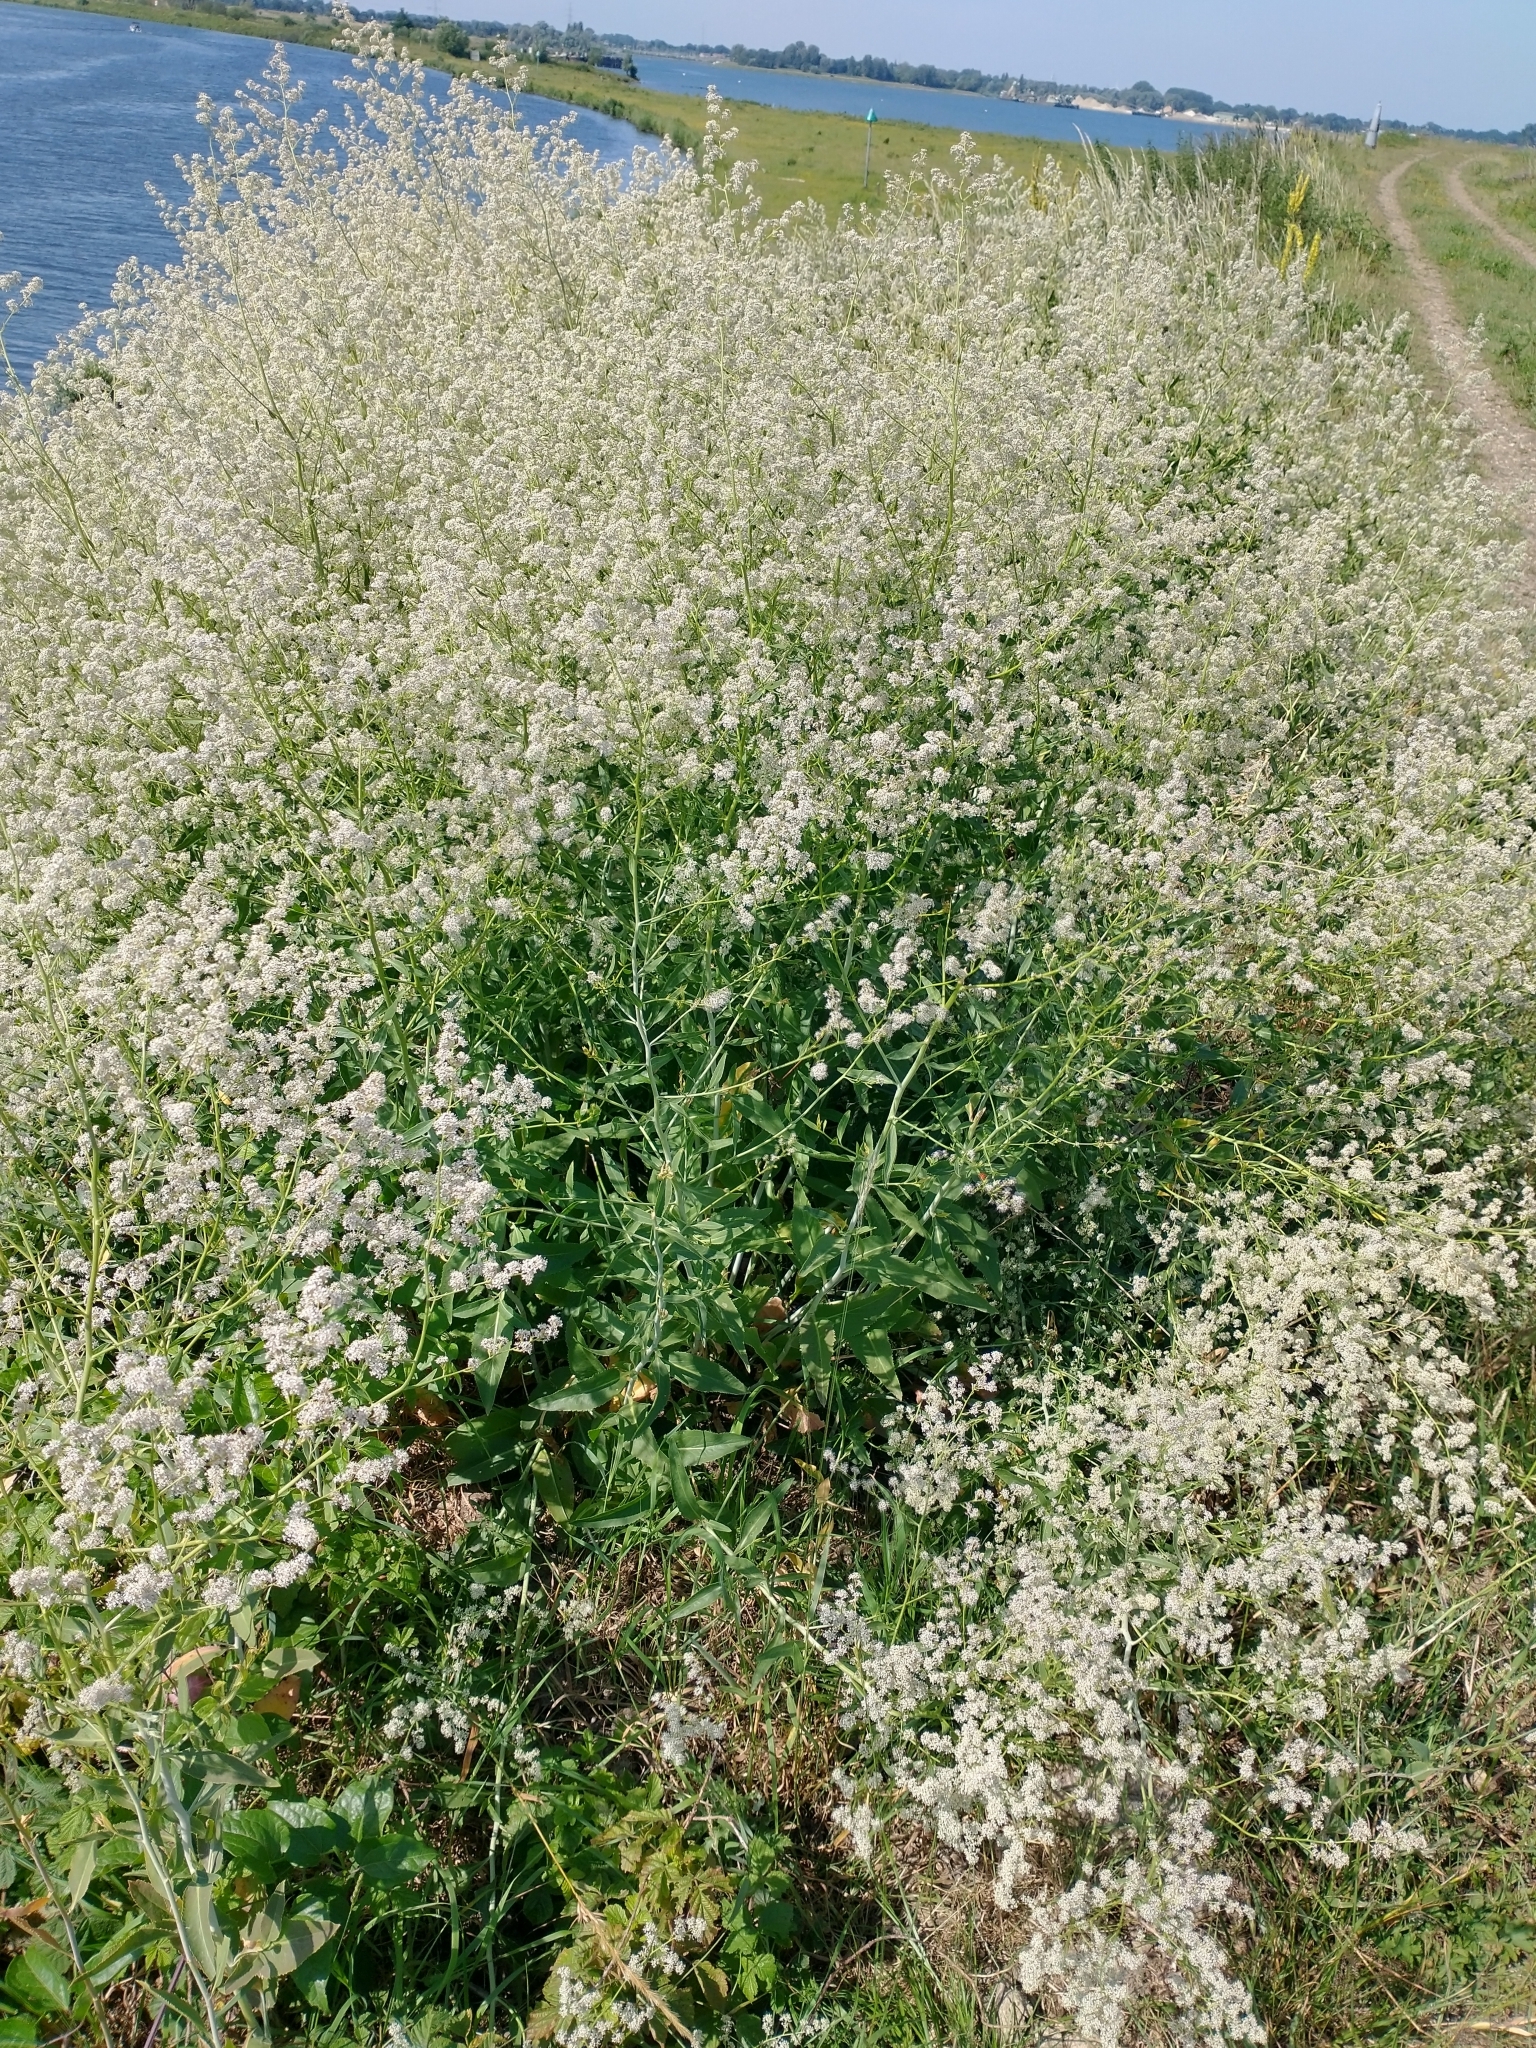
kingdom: Plantae
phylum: Tracheophyta
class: Magnoliopsida
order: Brassicales
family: Brassicaceae
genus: Lepidium
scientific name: Lepidium latifolium
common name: Dittander
